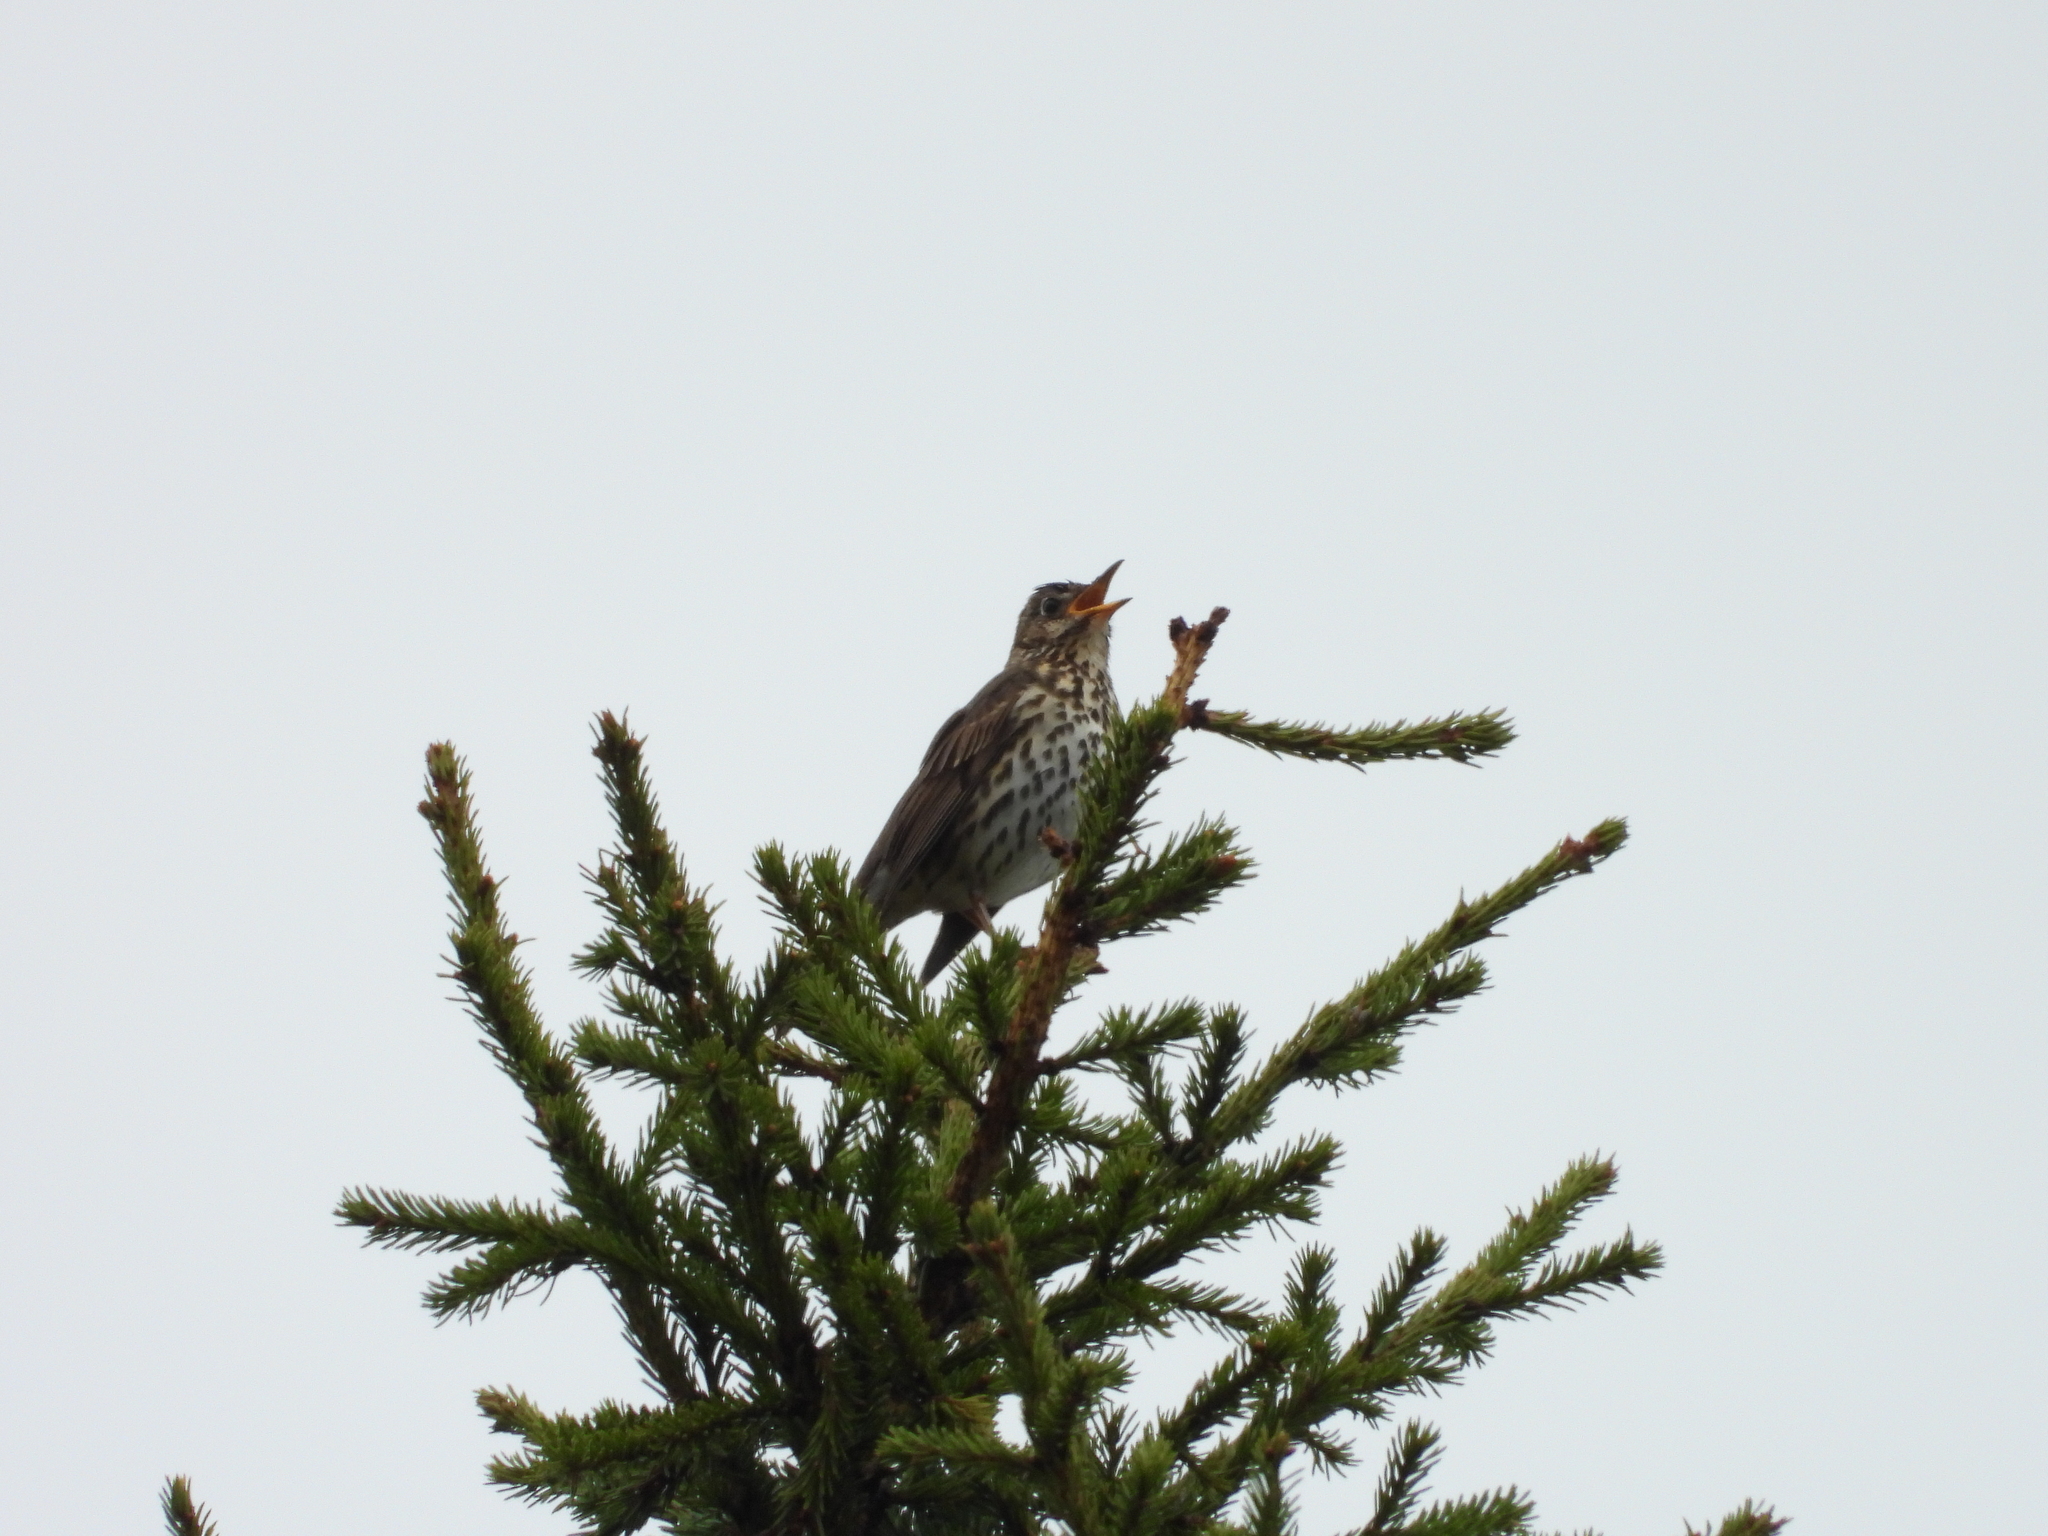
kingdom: Animalia
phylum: Chordata
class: Aves
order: Passeriformes
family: Turdidae
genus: Turdus
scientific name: Turdus philomelos
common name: Song thrush
